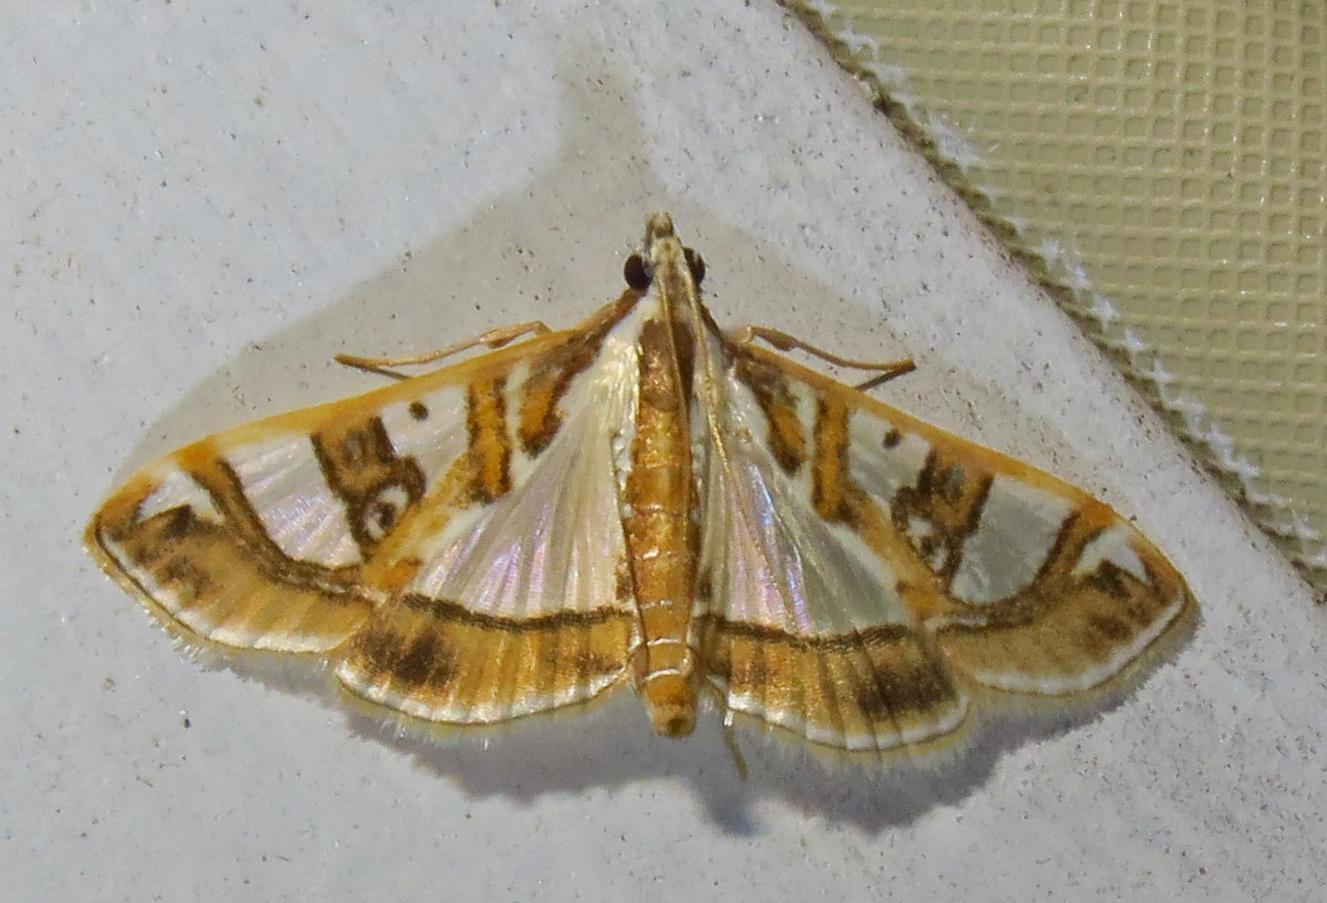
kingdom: Animalia
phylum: Arthropoda
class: Insecta
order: Lepidoptera
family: Crambidae
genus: Glyphodes
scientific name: Glyphodes pyloalis
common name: Lesser mulberry snout moth
